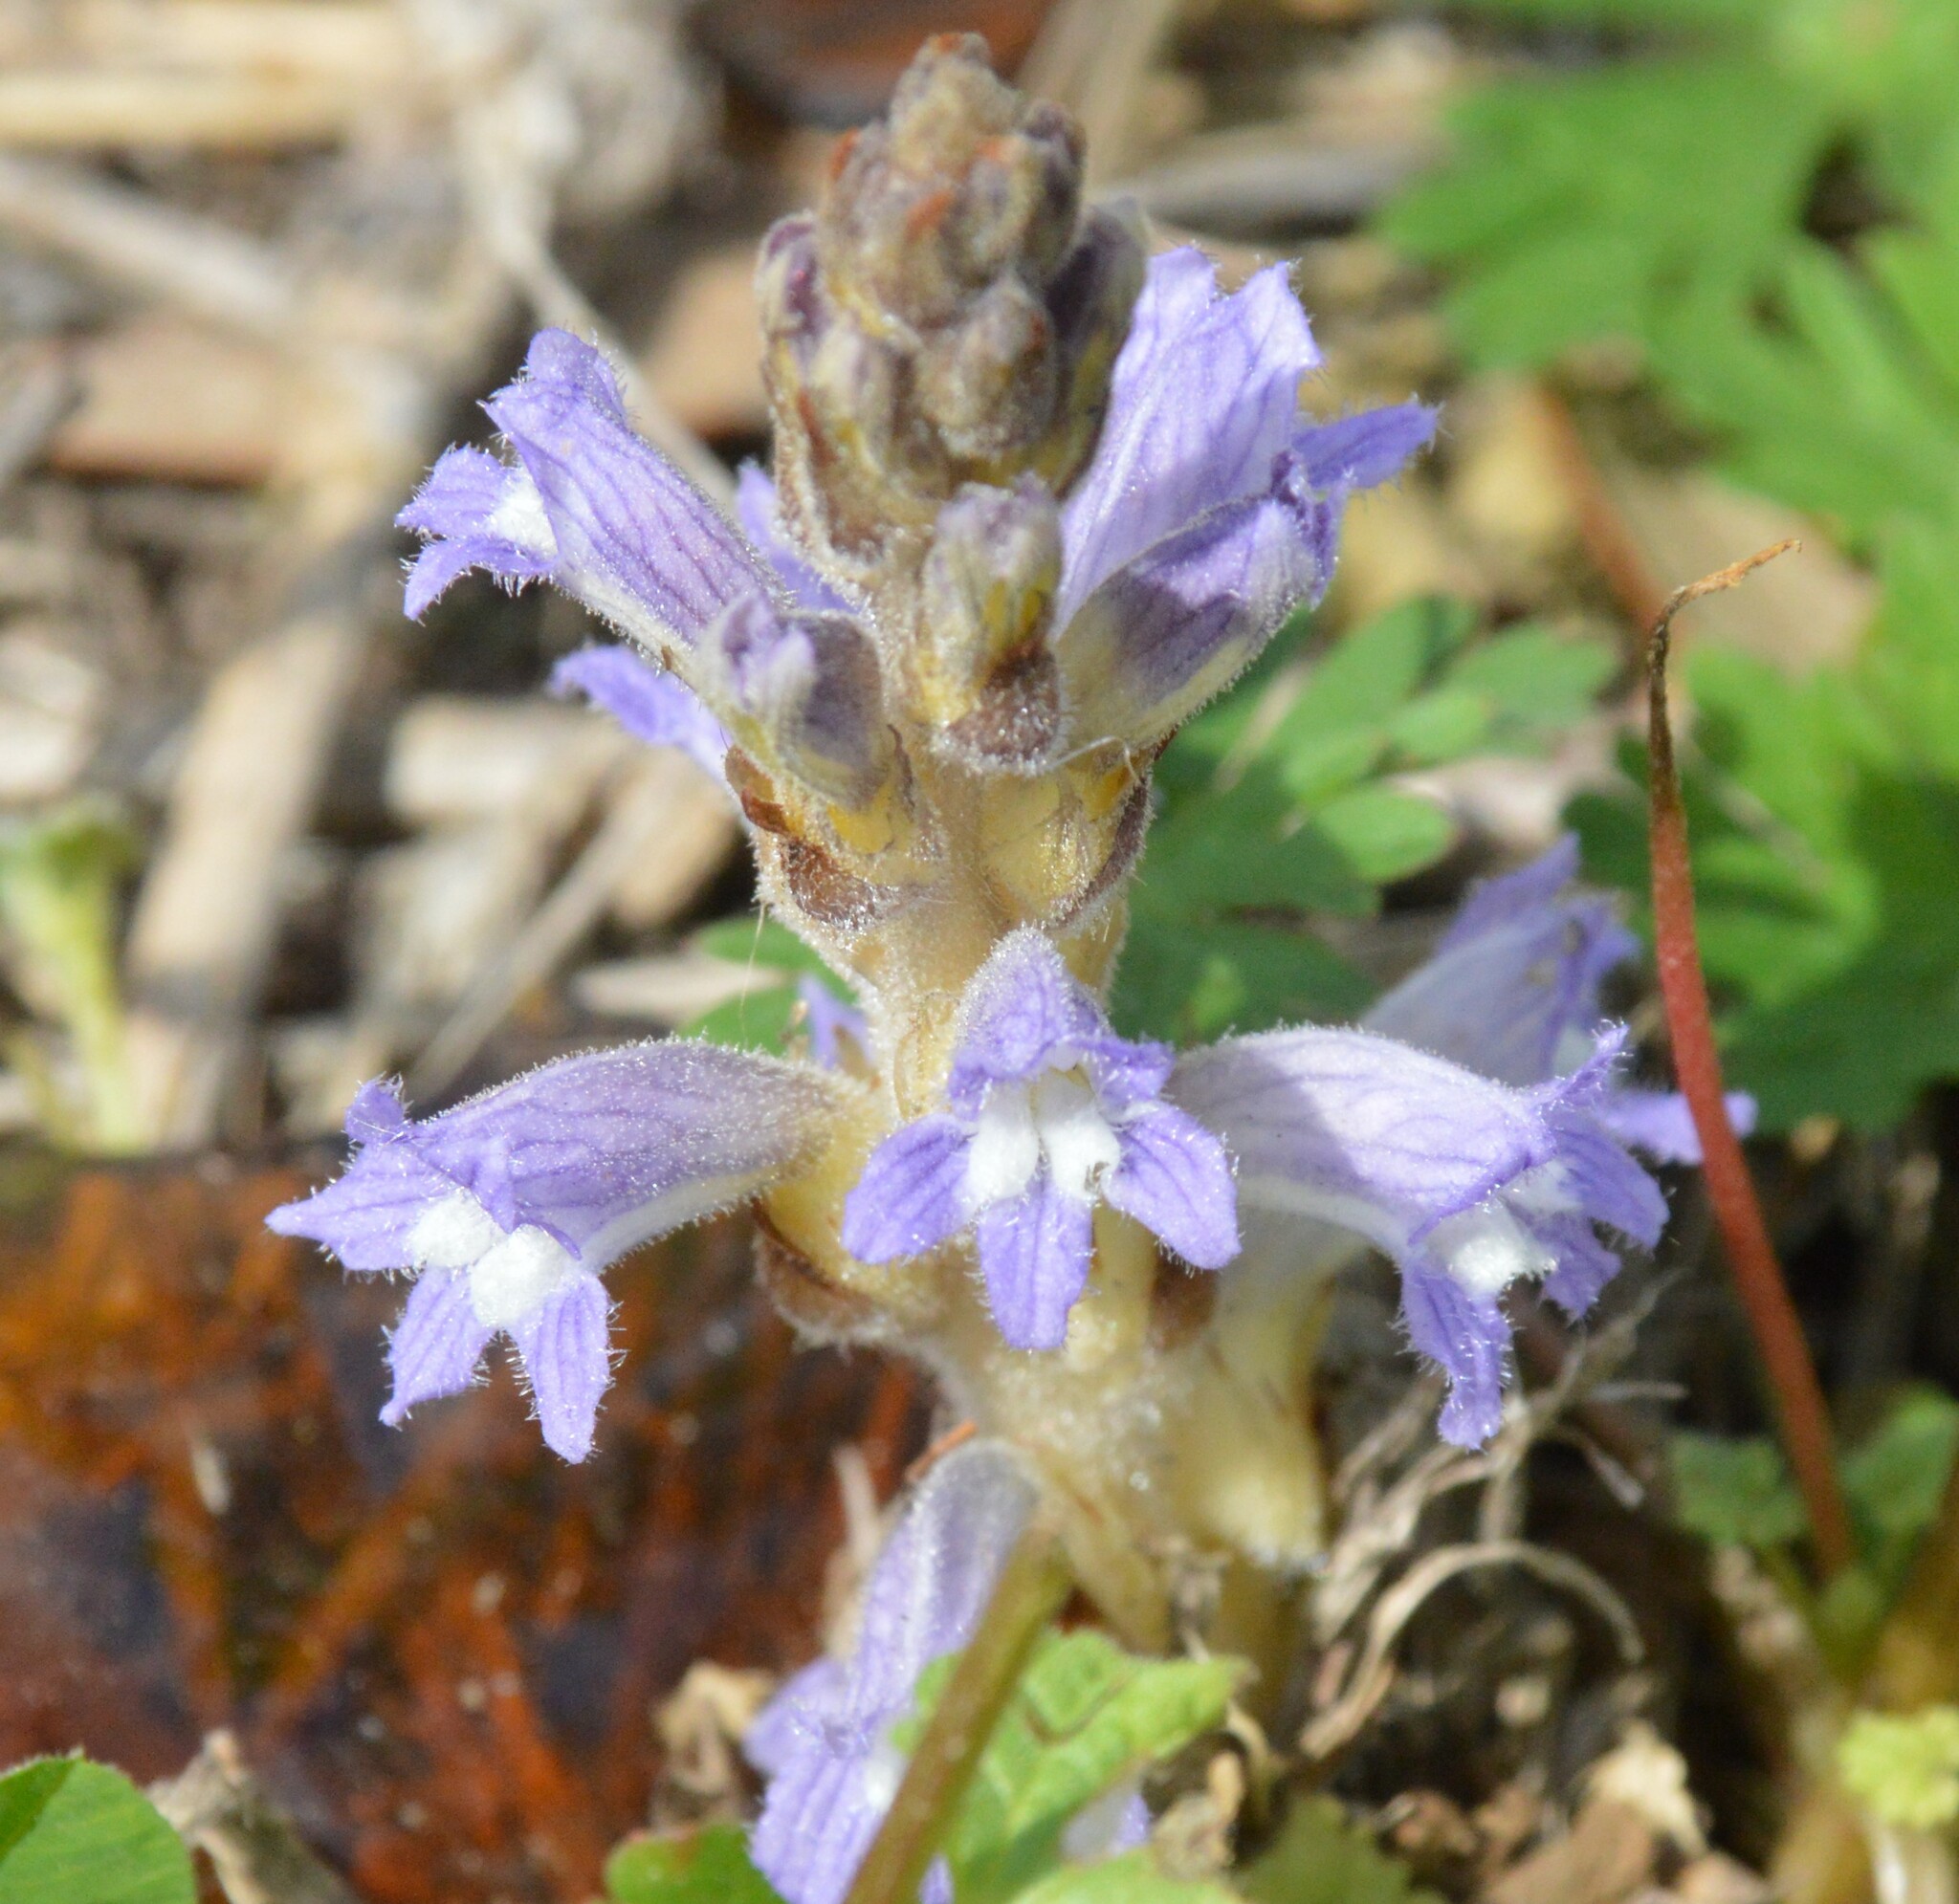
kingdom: Plantae
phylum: Tracheophyta
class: Magnoliopsida
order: Lamiales
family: Orobanchaceae
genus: Phelipanche
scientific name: Phelipanche mutelii
